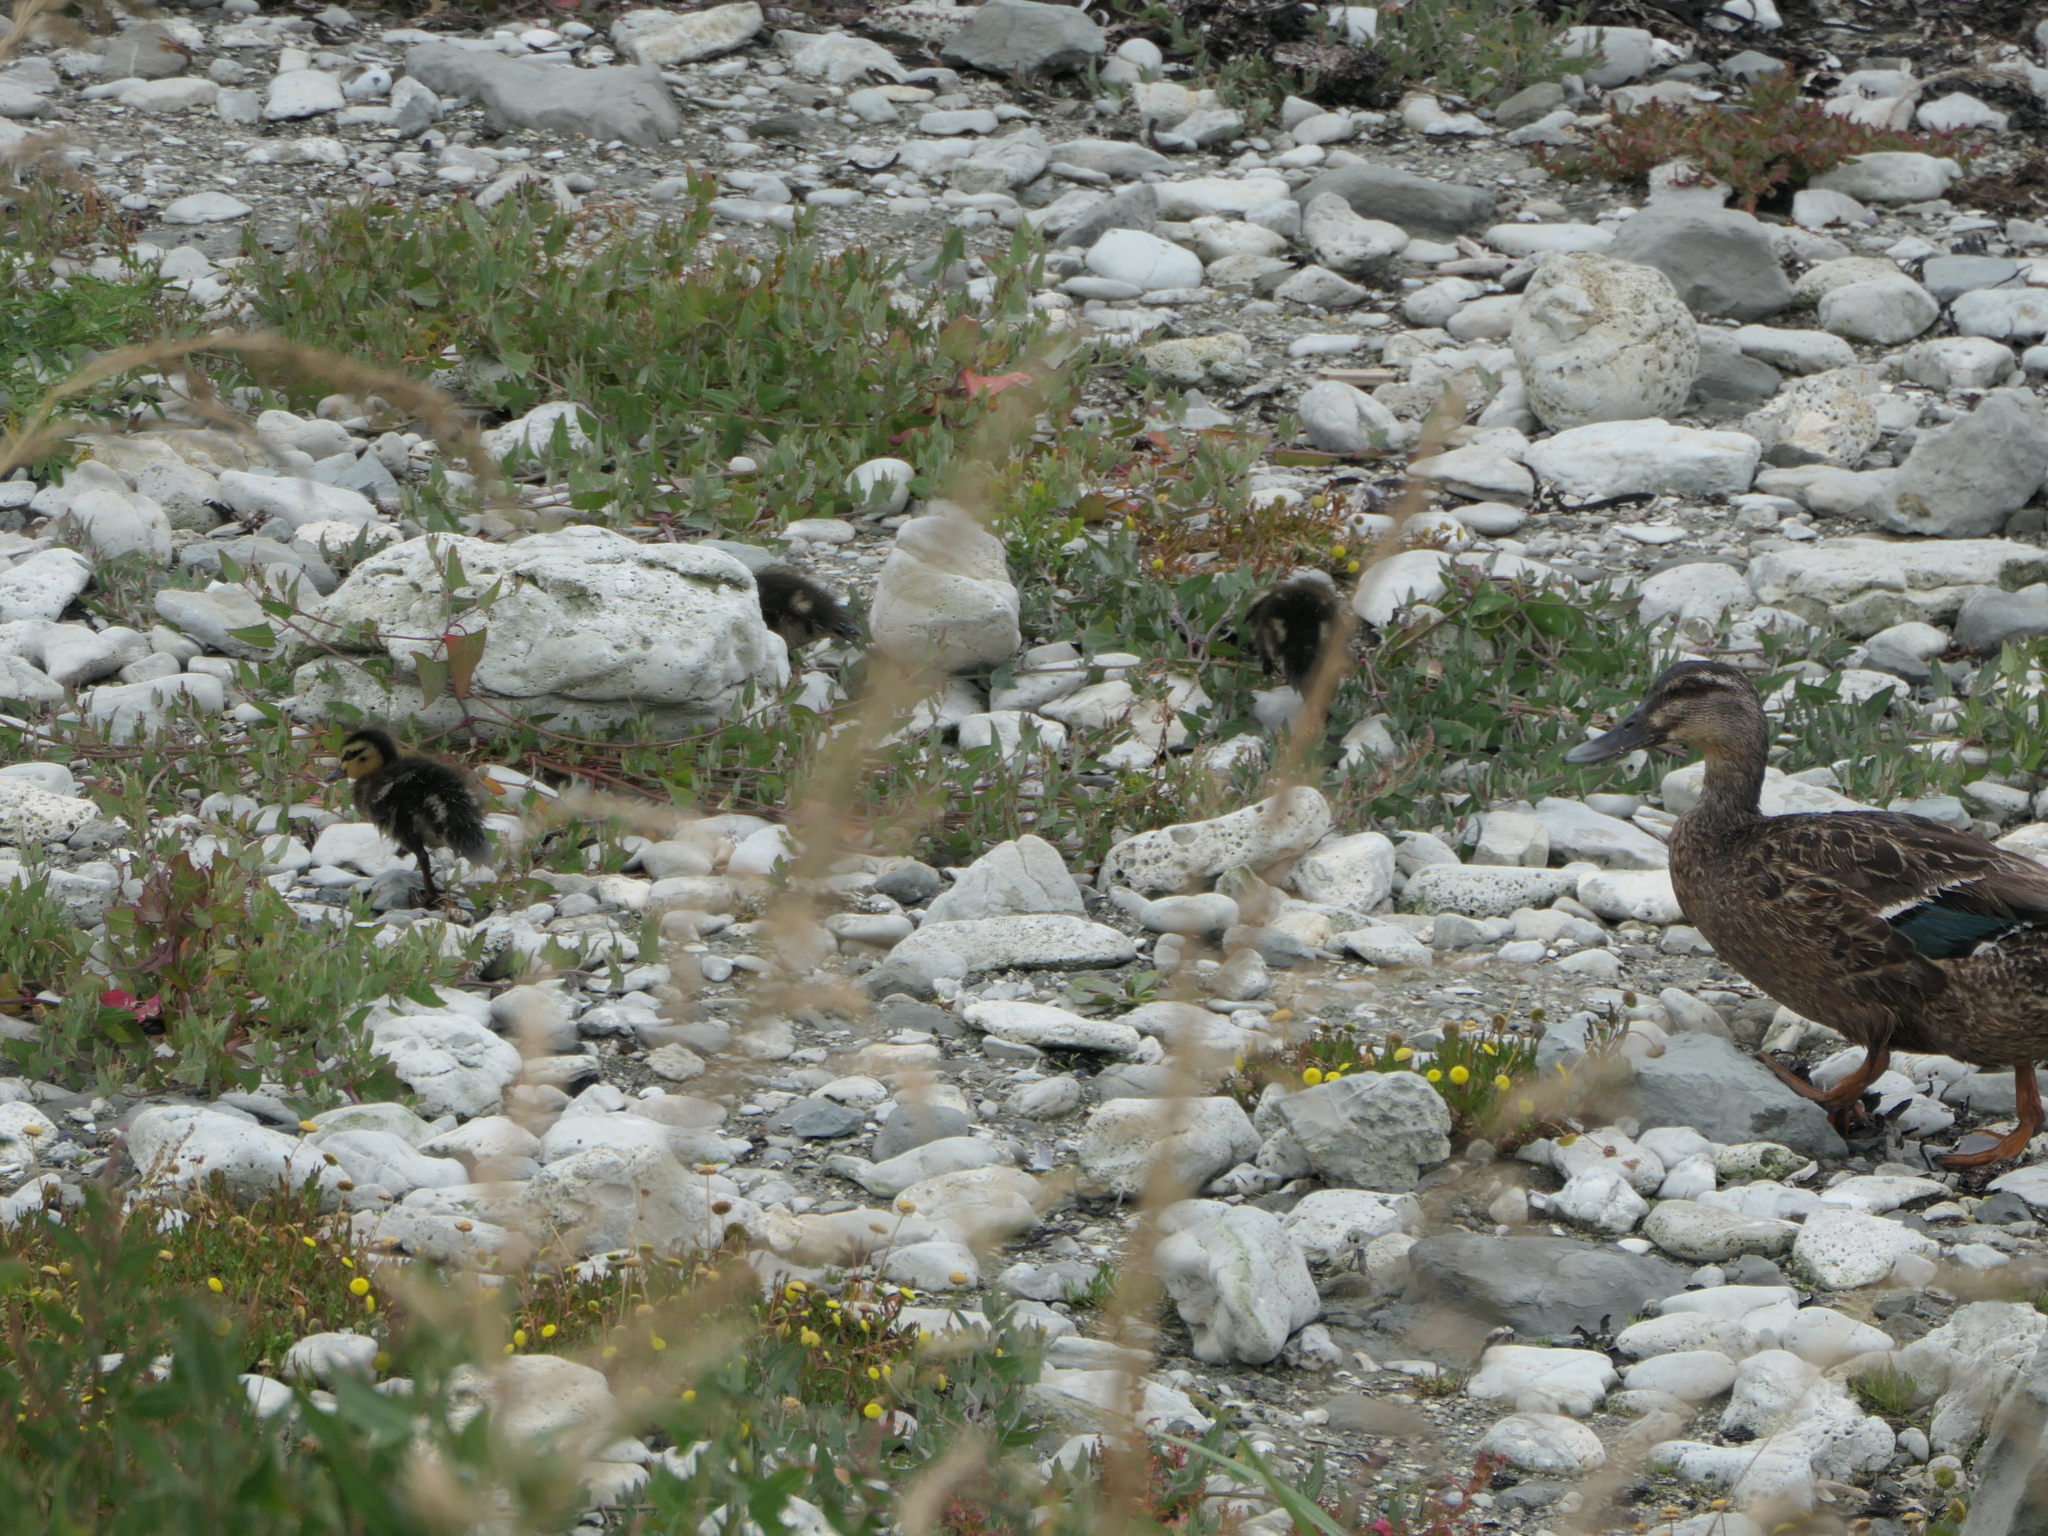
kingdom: Animalia
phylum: Chordata
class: Aves
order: Anseriformes
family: Anatidae
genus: Anas
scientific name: Anas platyrhynchos
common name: Mallard
